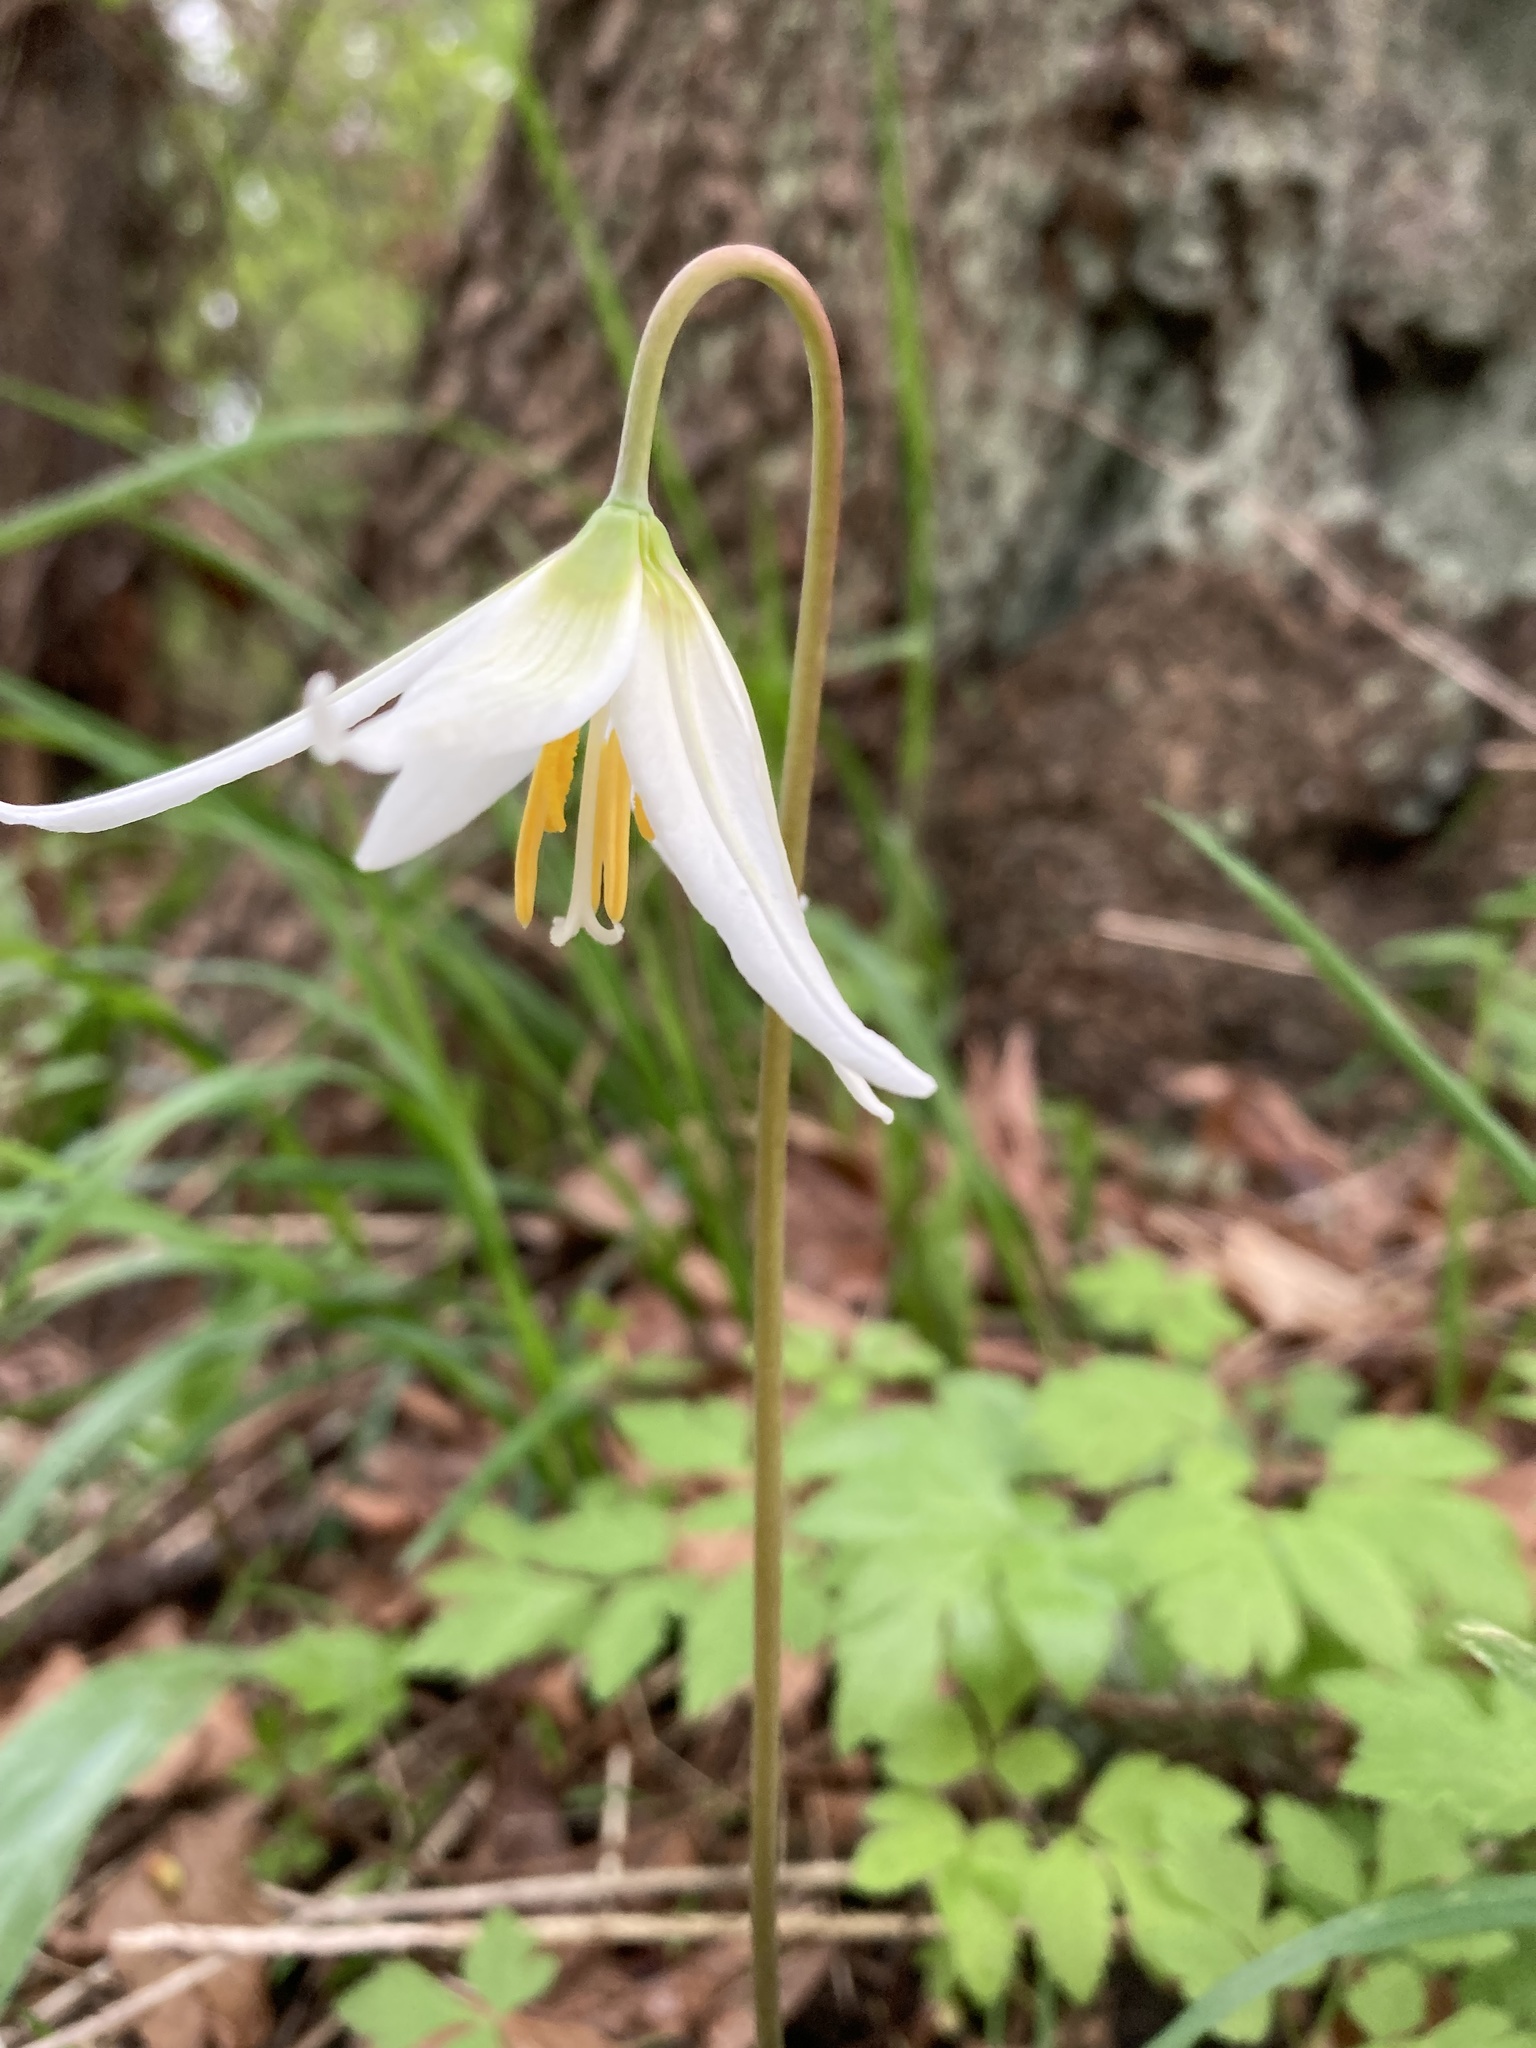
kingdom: Plantae
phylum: Tracheophyta
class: Liliopsida
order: Liliales
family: Liliaceae
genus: Erythronium
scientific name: Erythronium oregonum
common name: Giant adder's-tongue
